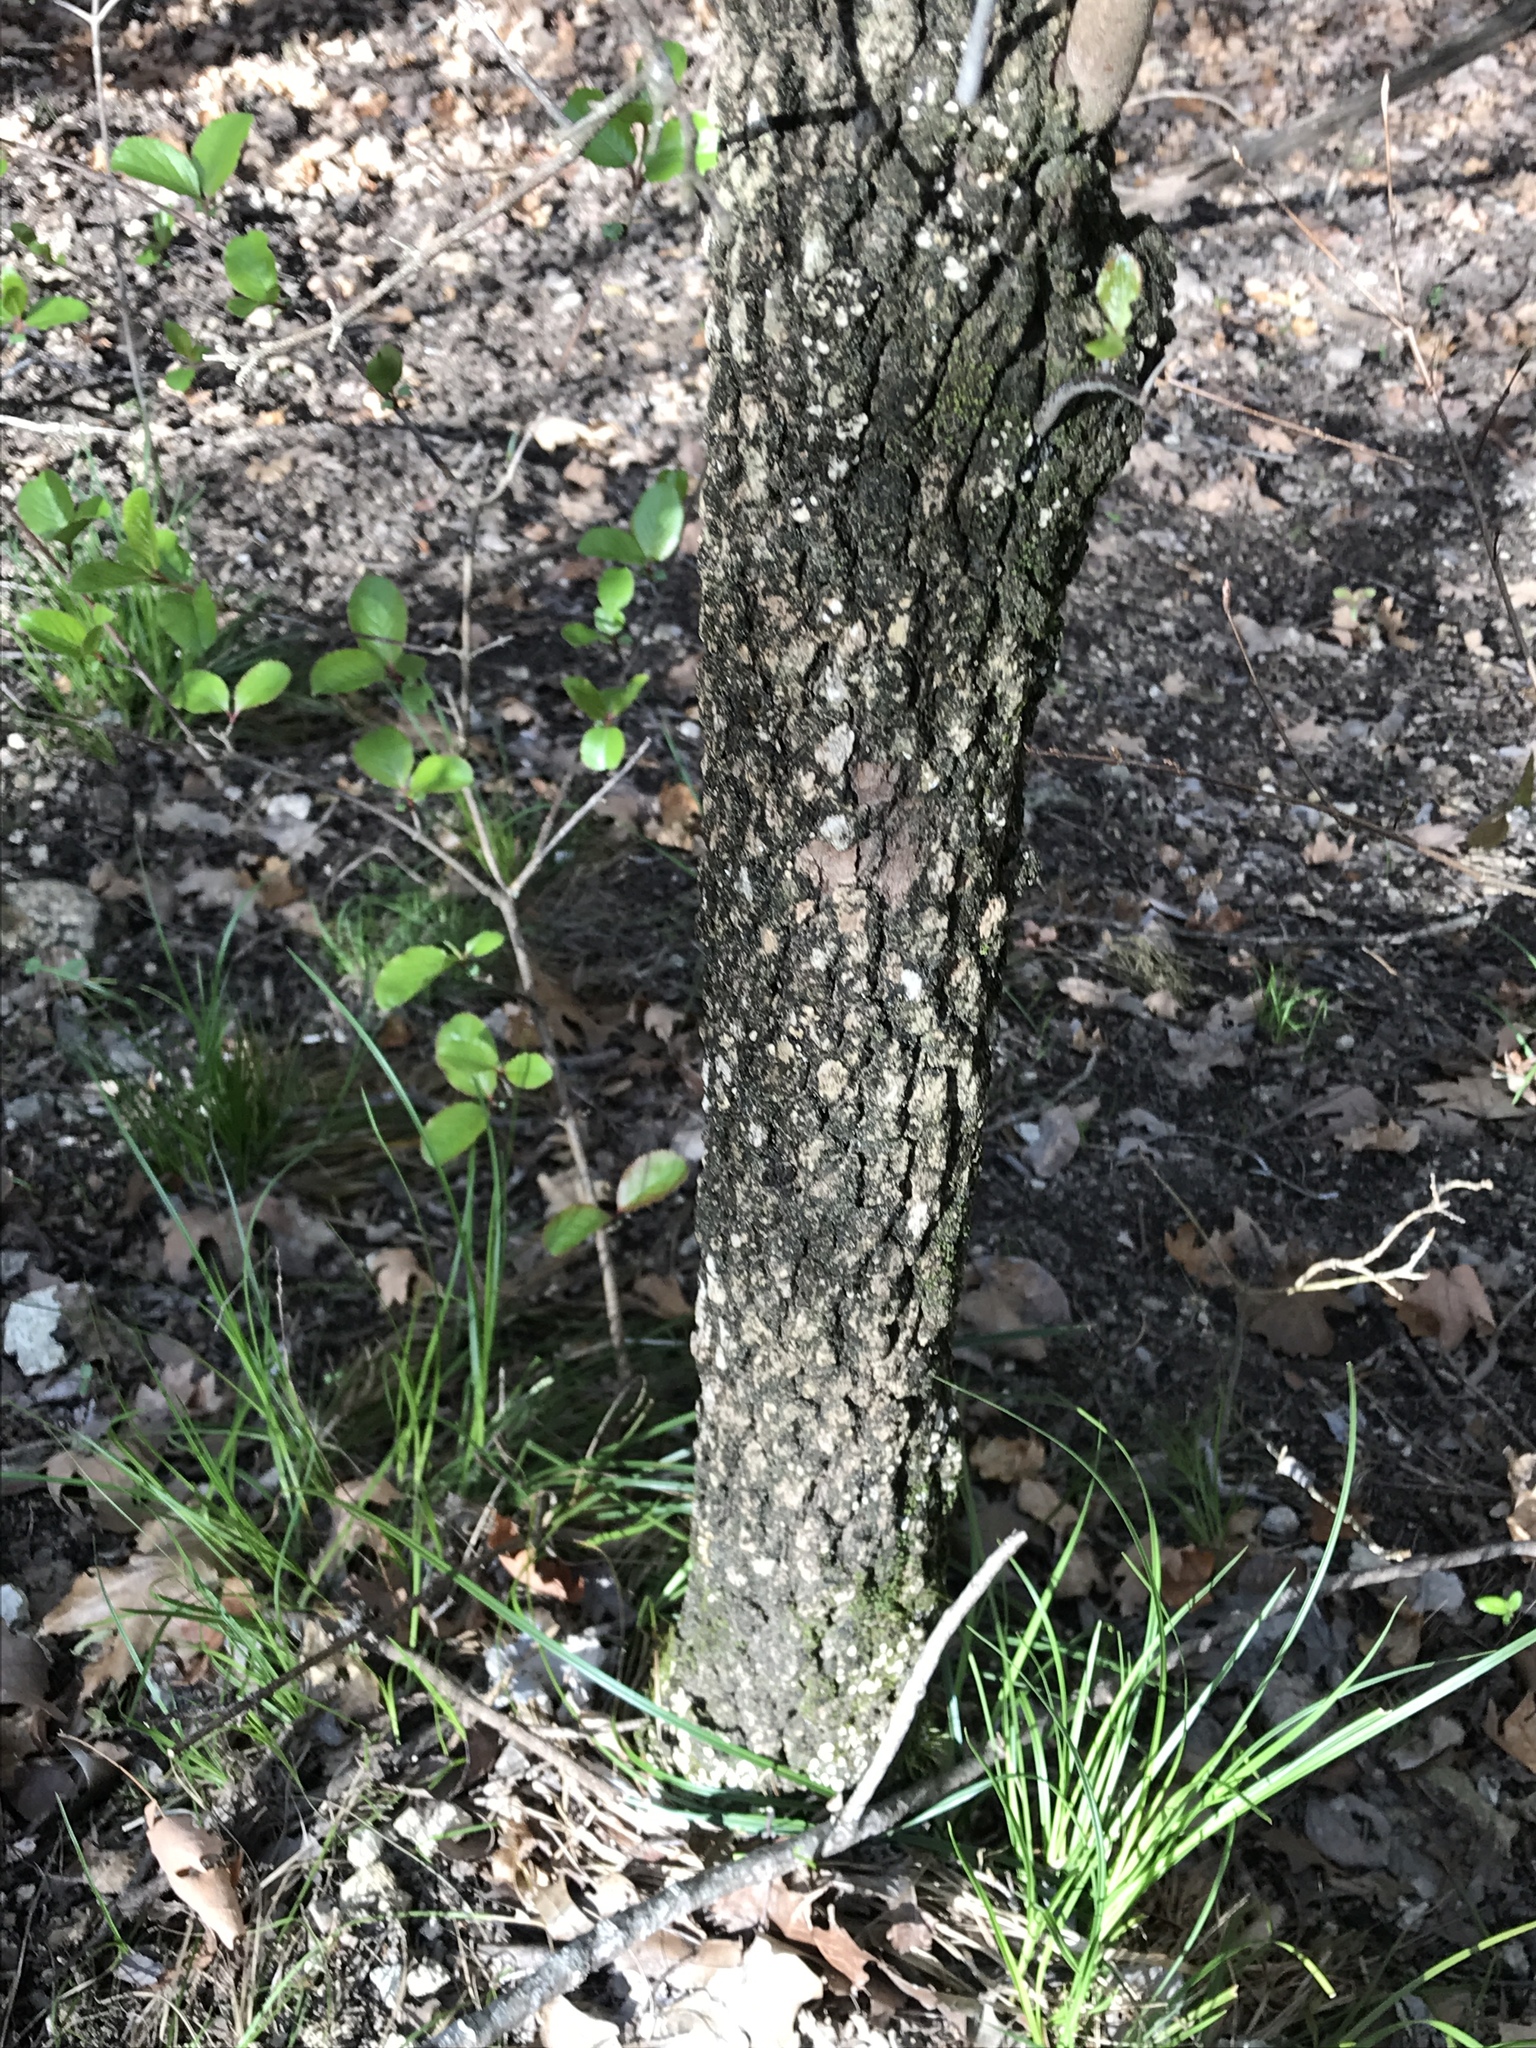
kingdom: Plantae
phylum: Tracheophyta
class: Magnoliopsida
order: Dipsacales
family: Viburnaceae
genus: Viburnum
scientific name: Viburnum rufidulum
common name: Blue haw
